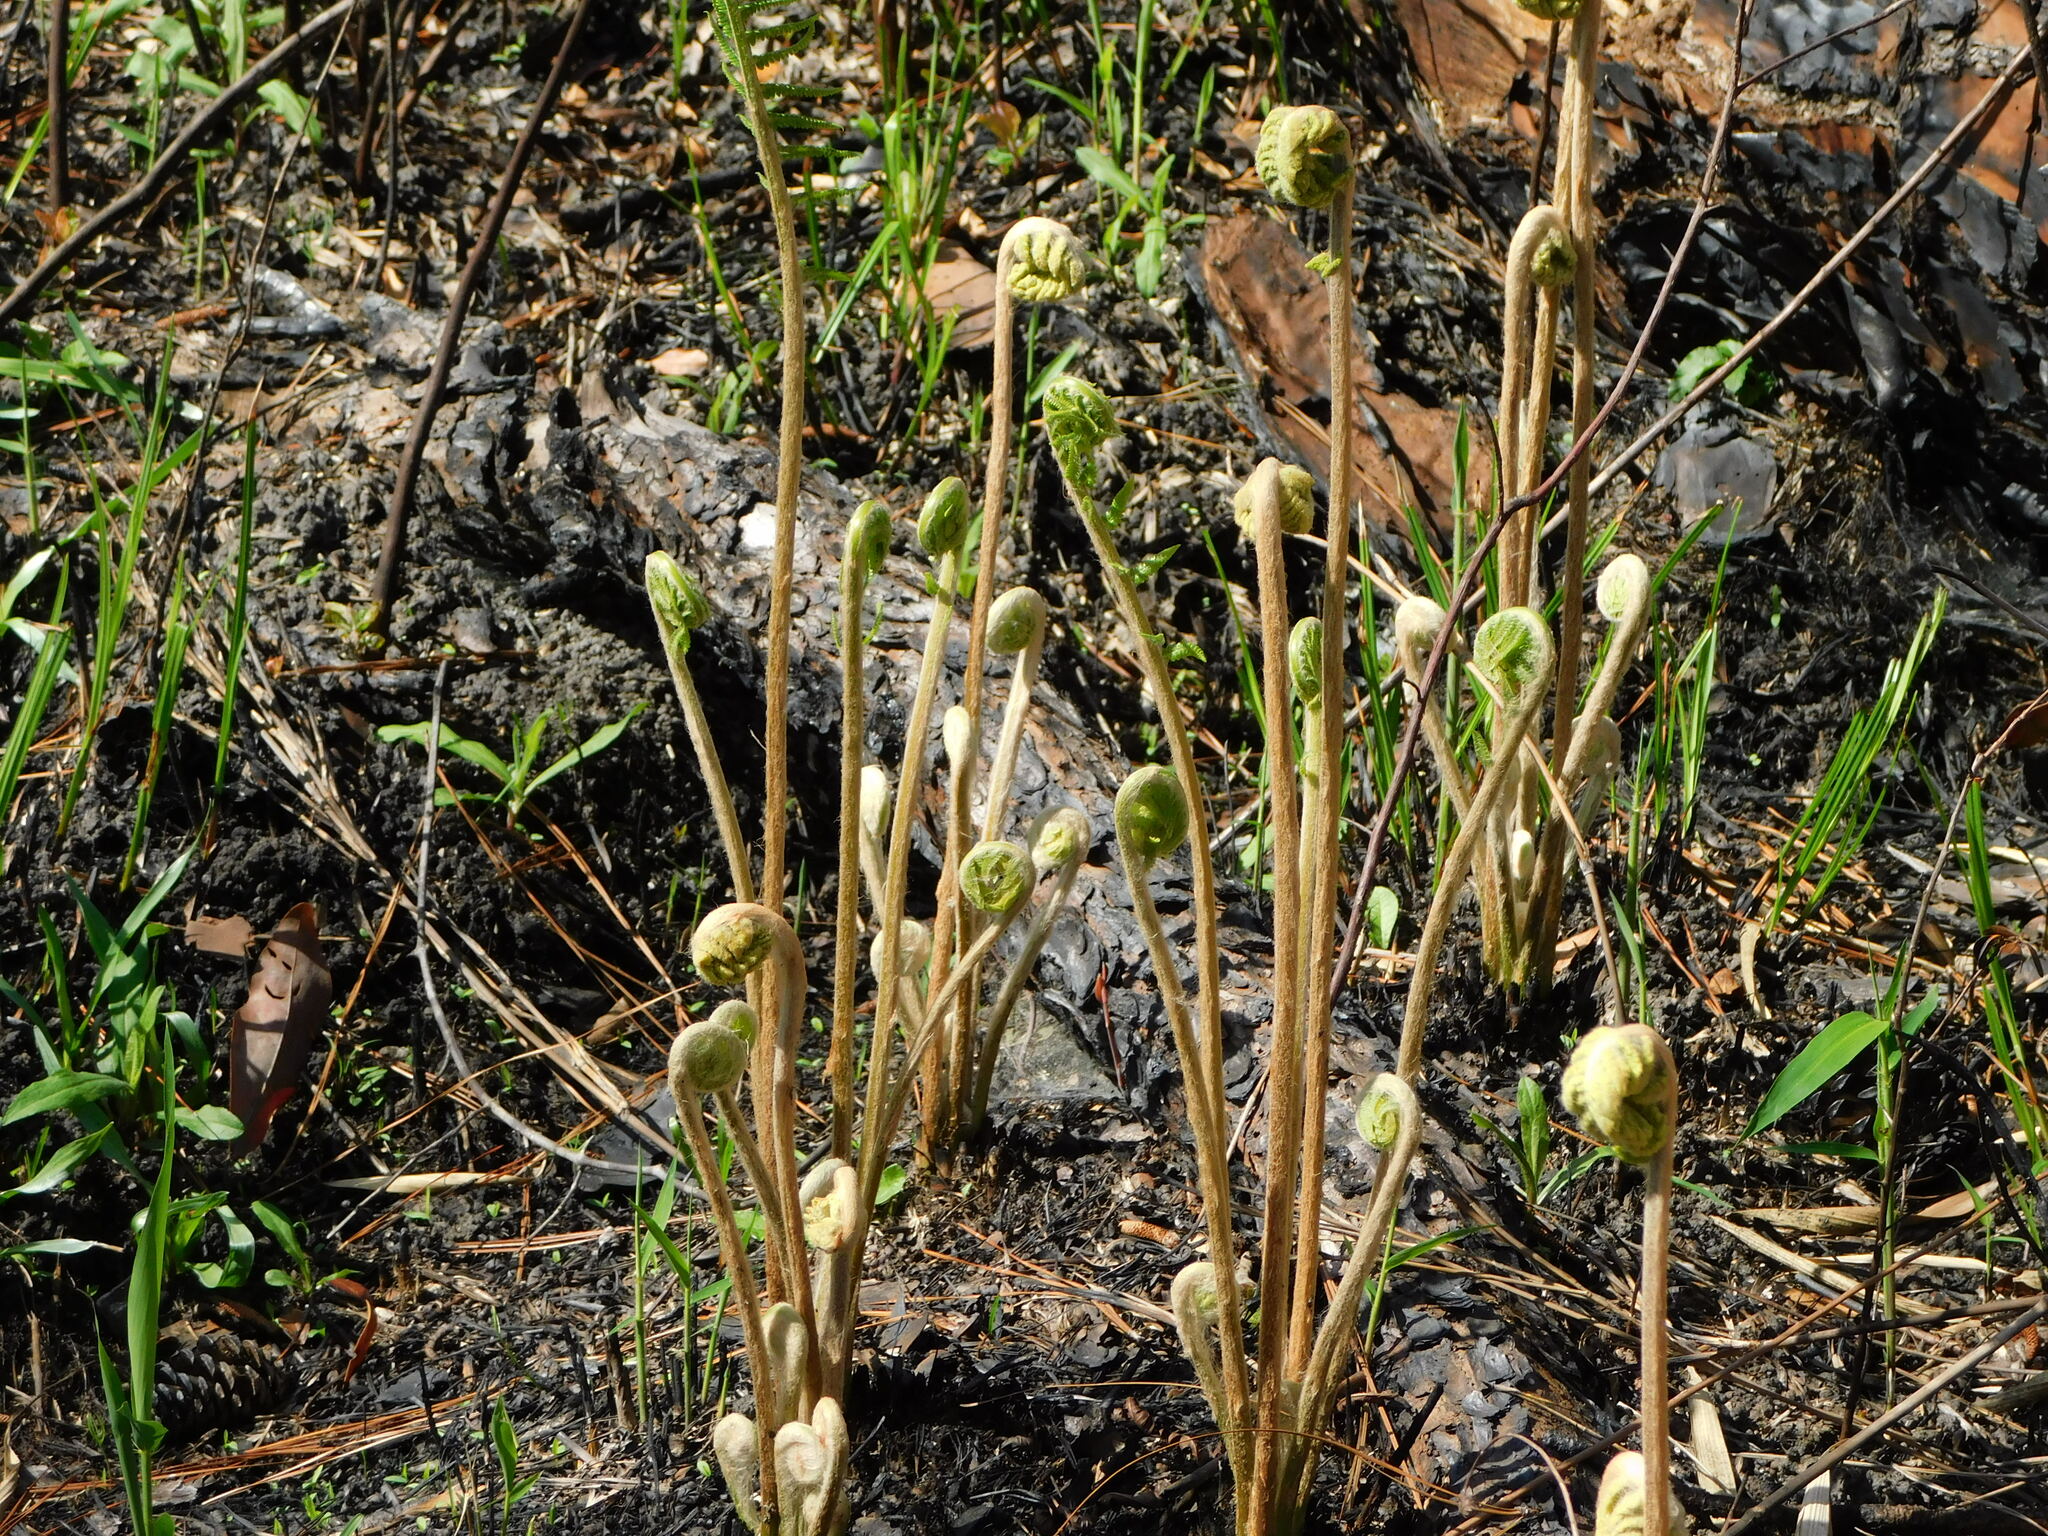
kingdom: Plantae
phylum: Tracheophyta
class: Polypodiopsida
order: Osmundales
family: Osmundaceae
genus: Osmundastrum
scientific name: Osmundastrum cinnamomeum
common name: Cinnamon fern
